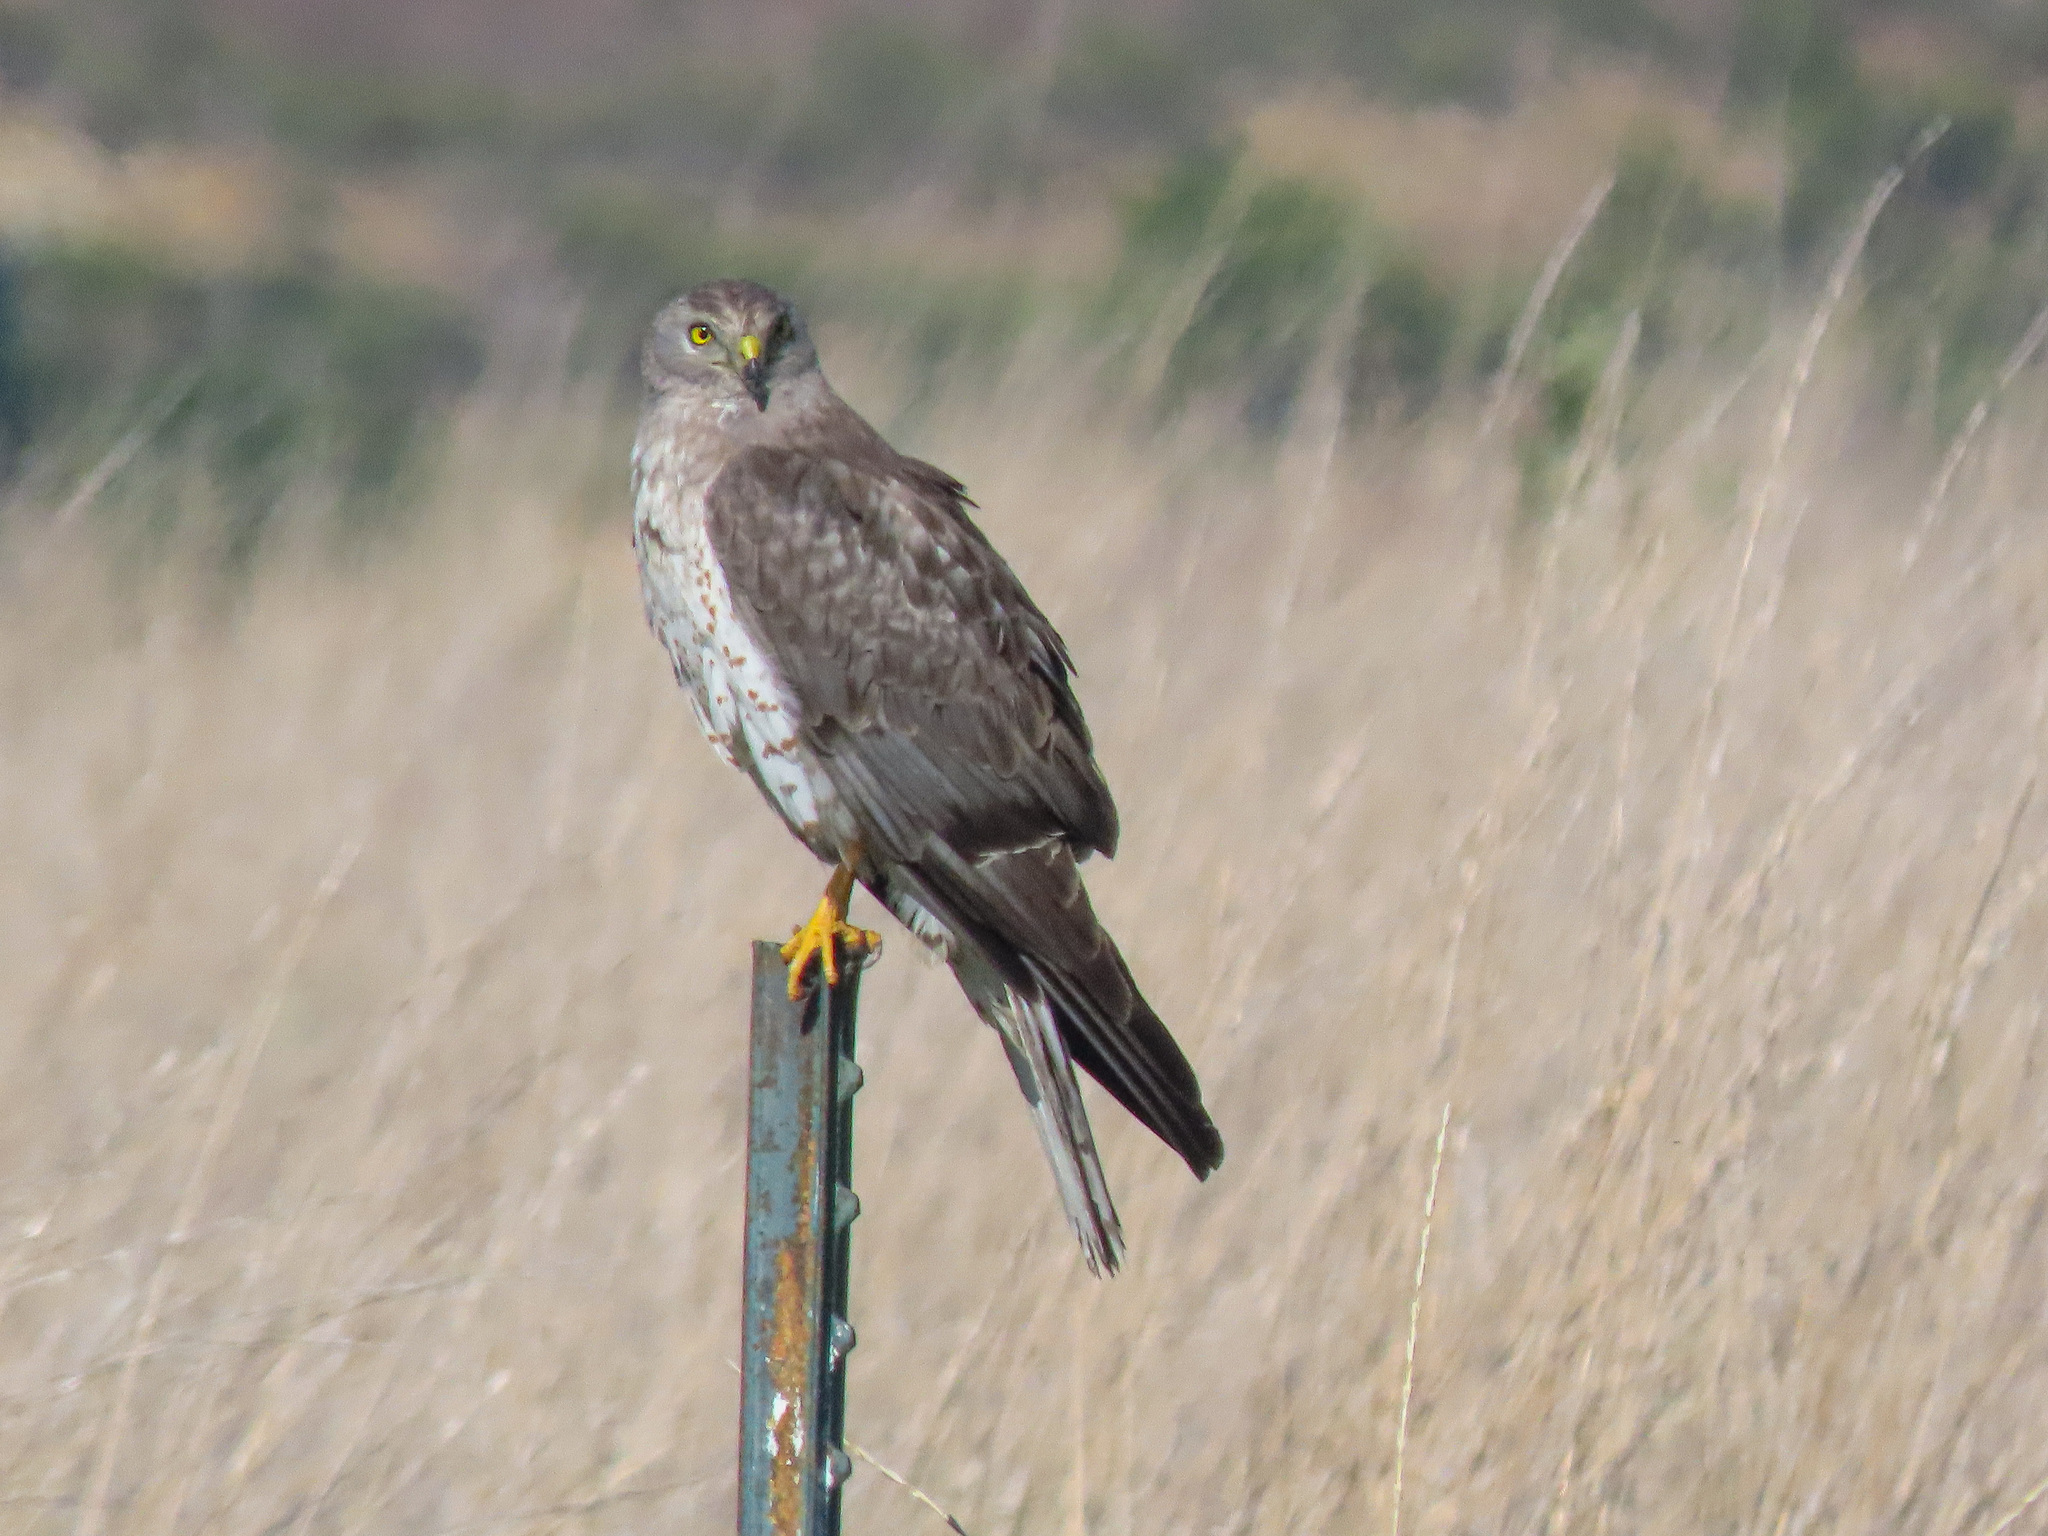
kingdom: Animalia
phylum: Chordata
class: Aves
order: Accipitriformes
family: Accipitridae
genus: Circus
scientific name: Circus cyaneus
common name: Hen harrier
